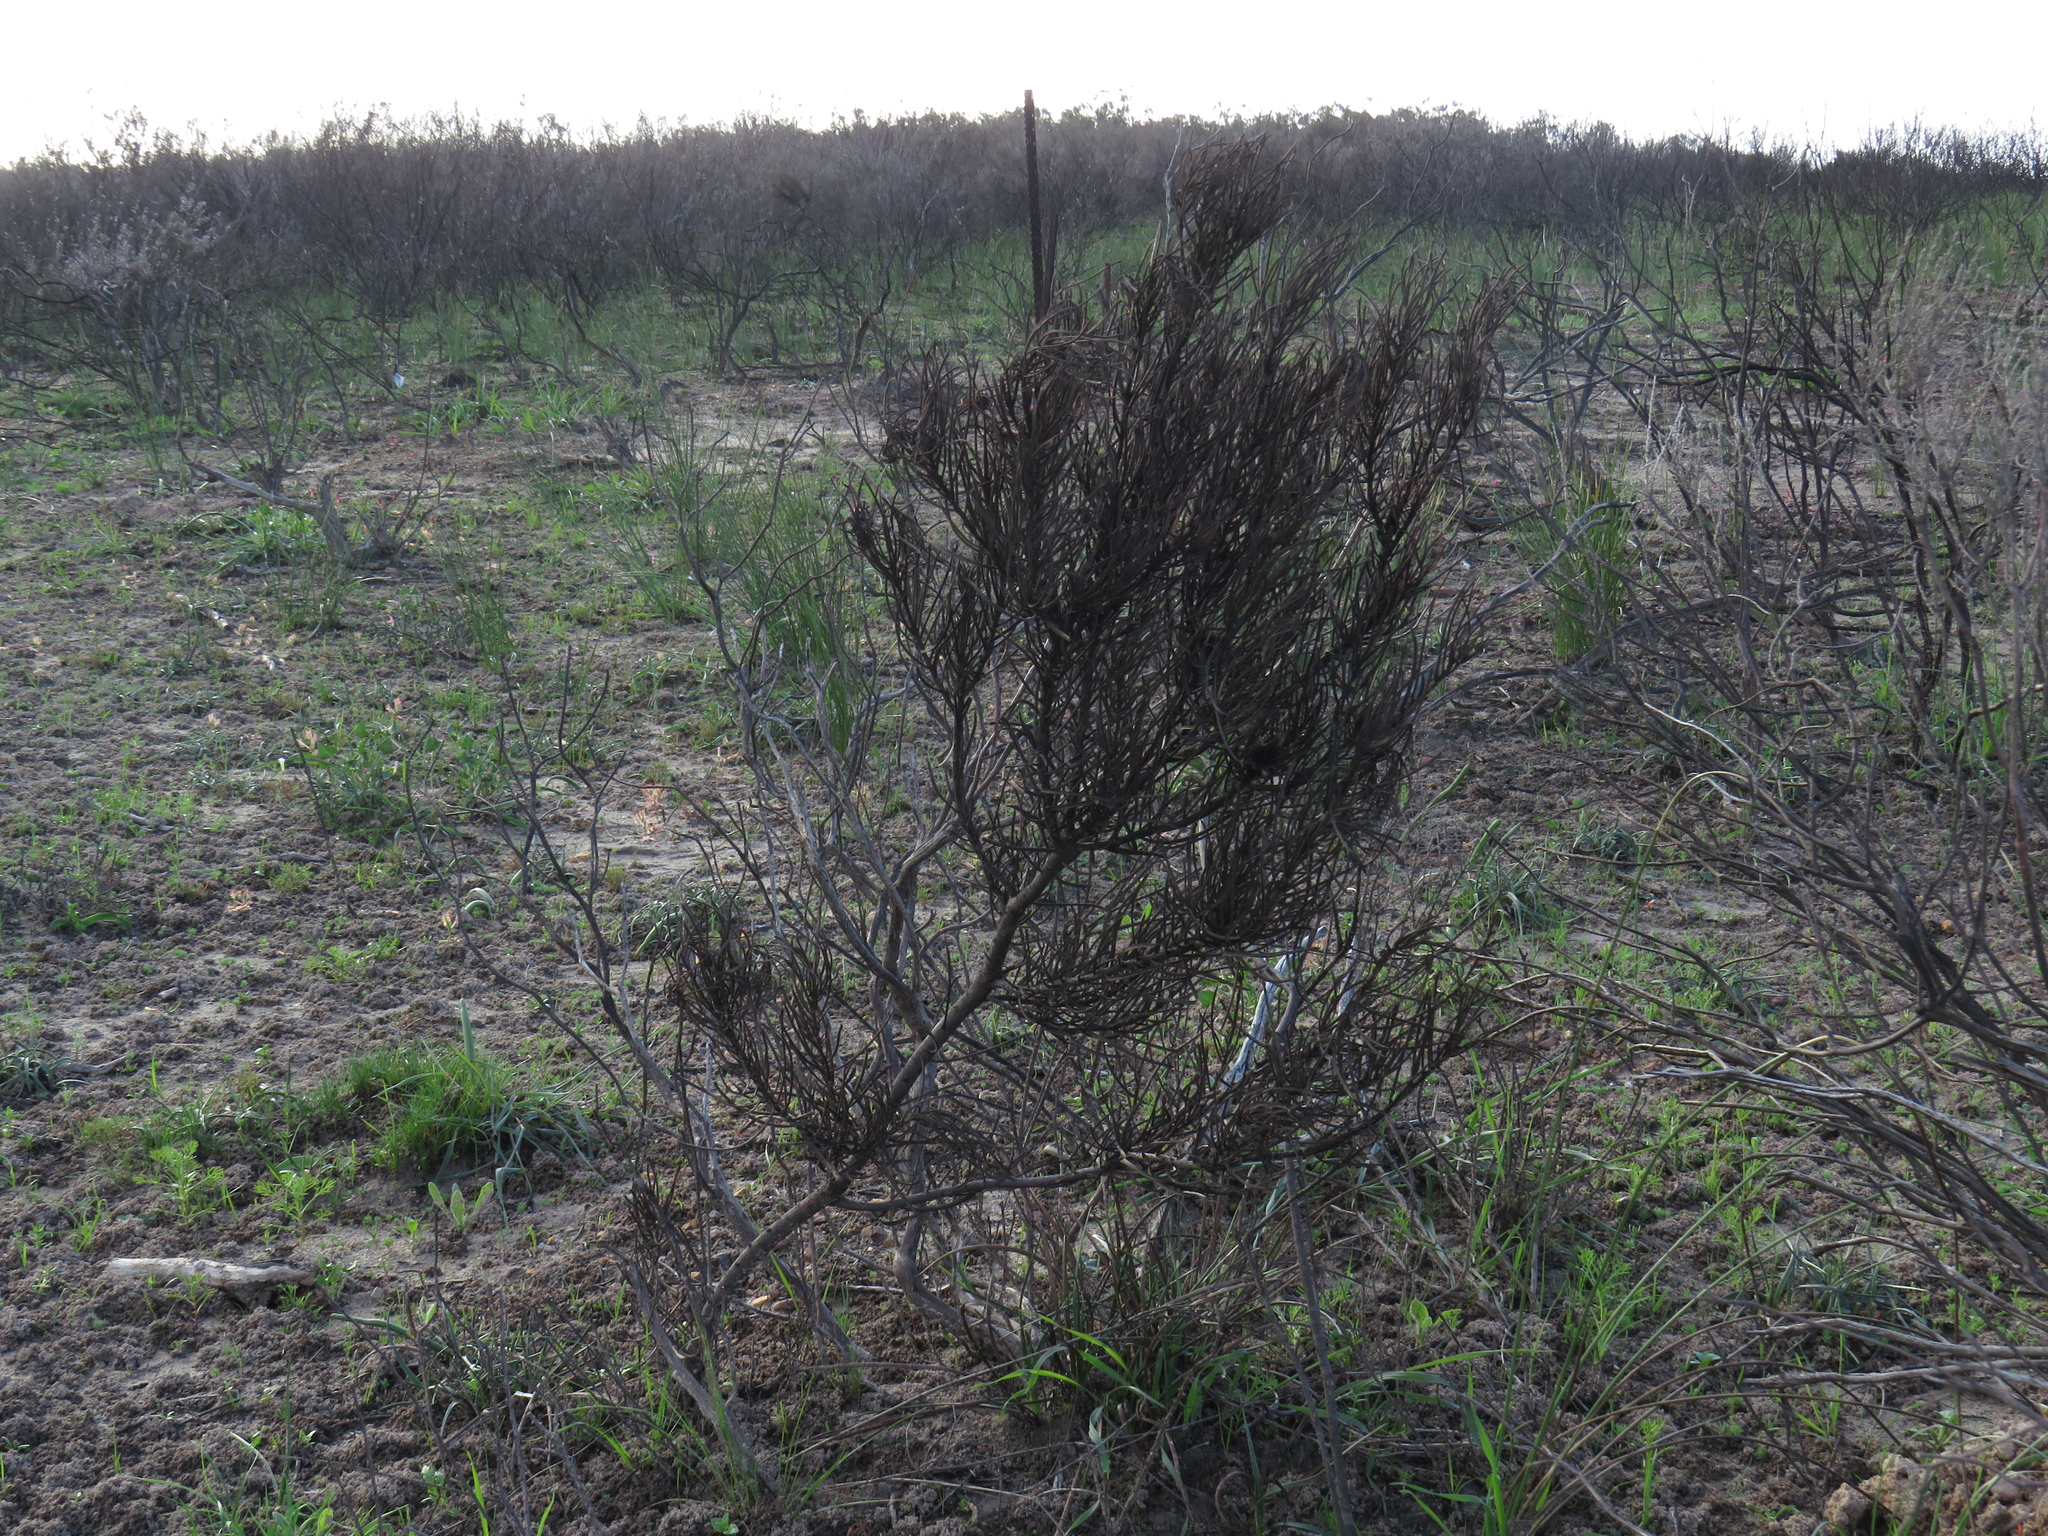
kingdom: Plantae
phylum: Tracheophyta
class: Magnoliopsida
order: Proteales
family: Proteaceae
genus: Protea
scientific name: Protea odorata
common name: Swartland sugarbush
